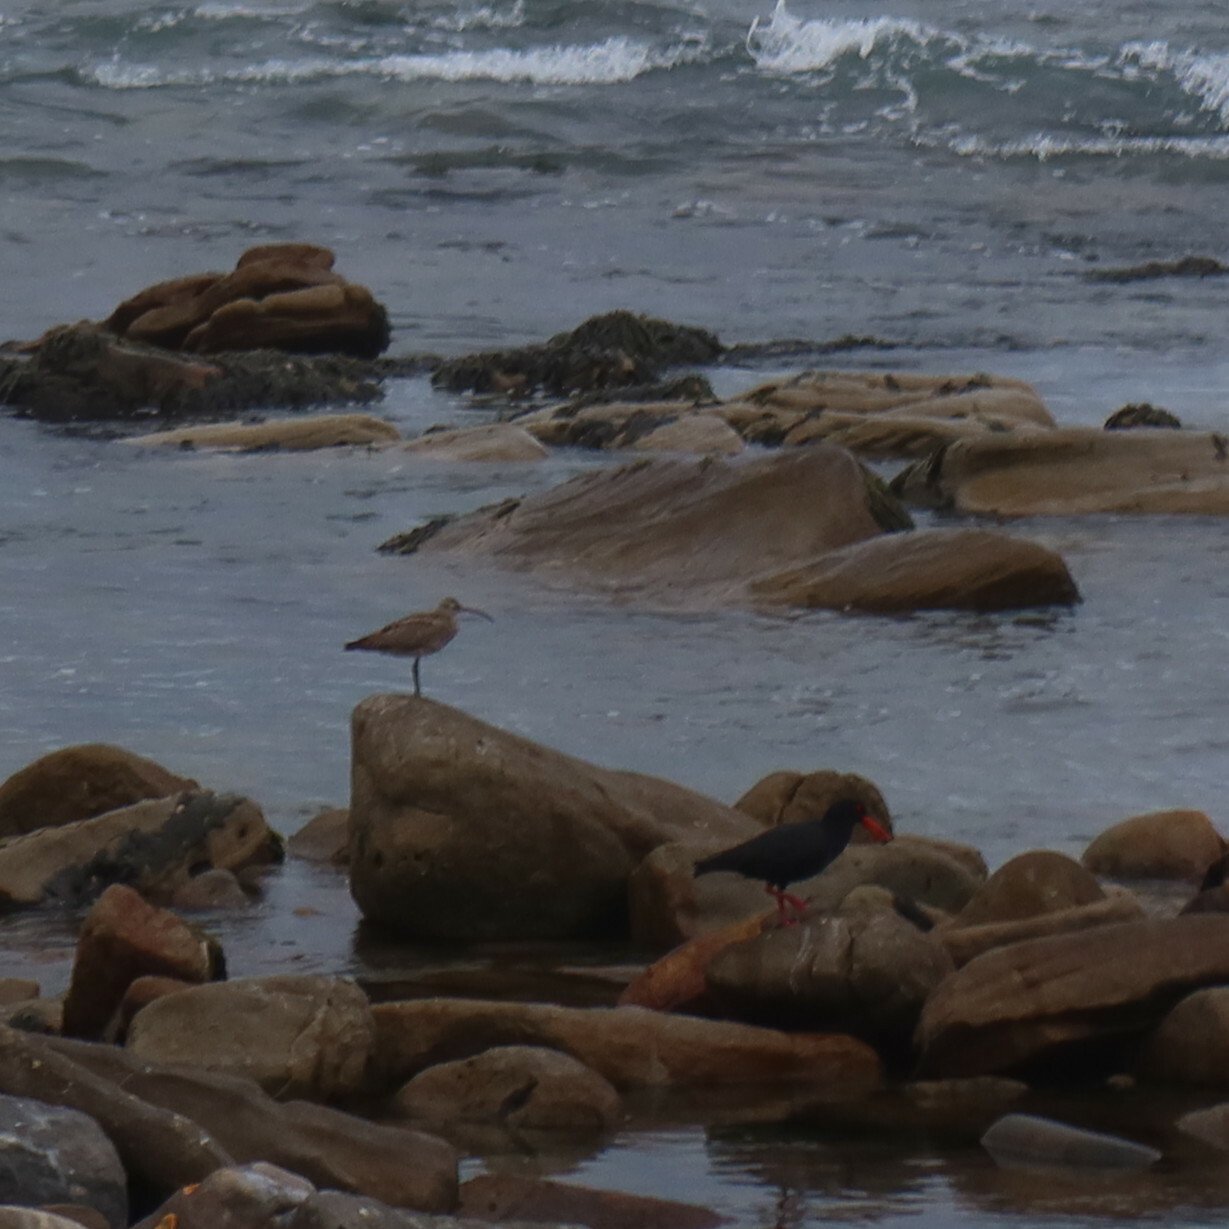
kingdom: Animalia
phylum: Chordata
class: Aves
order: Charadriiformes
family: Haematopodidae
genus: Haematopus
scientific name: Haematopus moquini
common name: African oystercatcher
